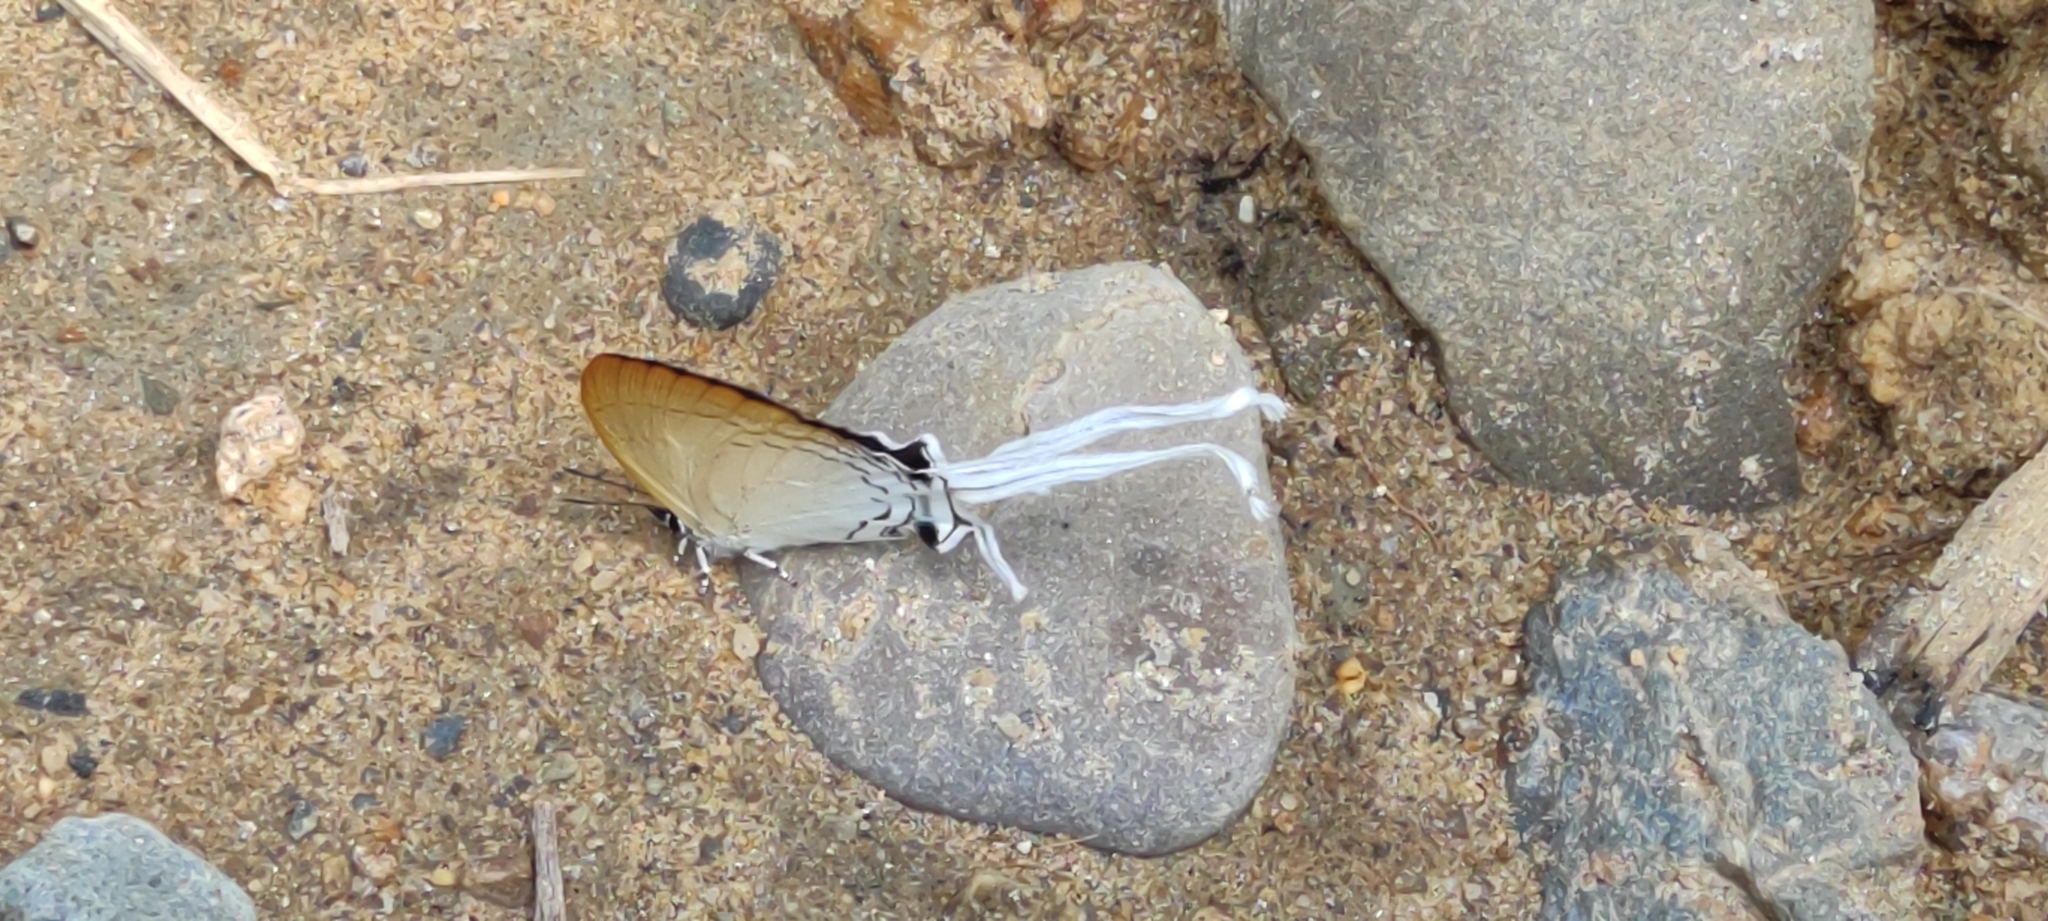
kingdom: Animalia
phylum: Arthropoda
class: Insecta
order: Lepidoptera
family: Lycaenidae
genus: Cheritra
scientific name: Cheritra freja
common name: Common imperial
